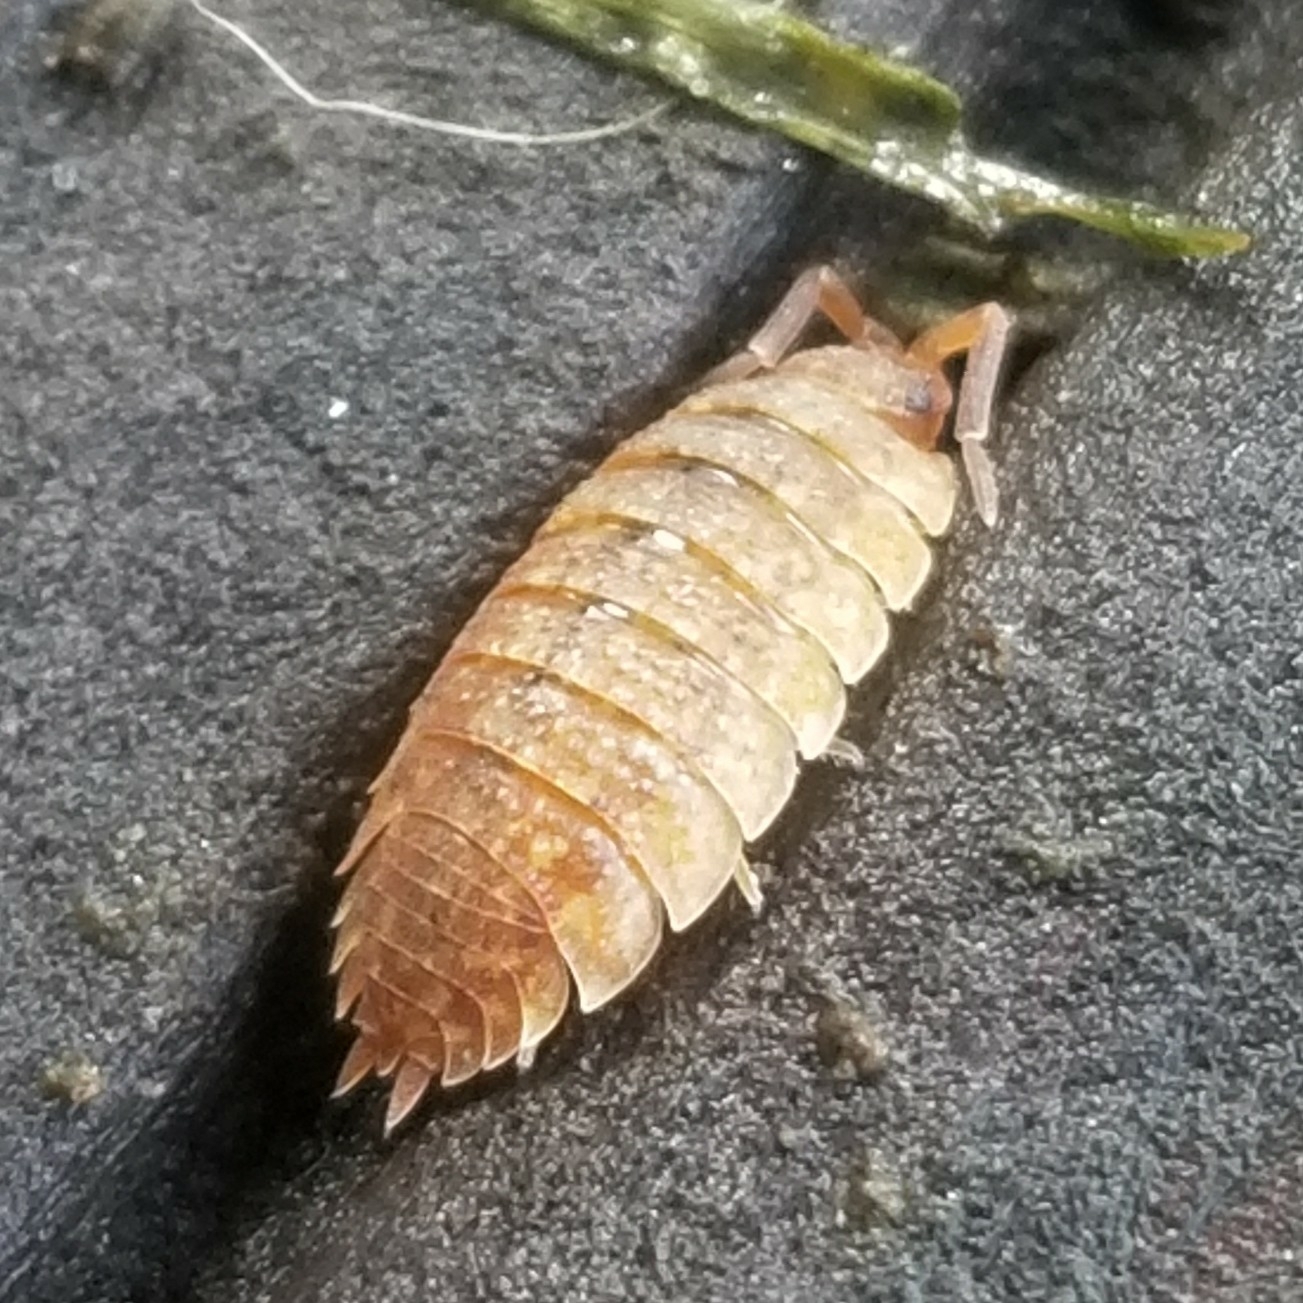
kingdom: Animalia
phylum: Arthropoda
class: Malacostraca
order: Isopoda
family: Porcellionidae
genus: Porcellio
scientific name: Porcellio scaber
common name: Common rough woodlouse
